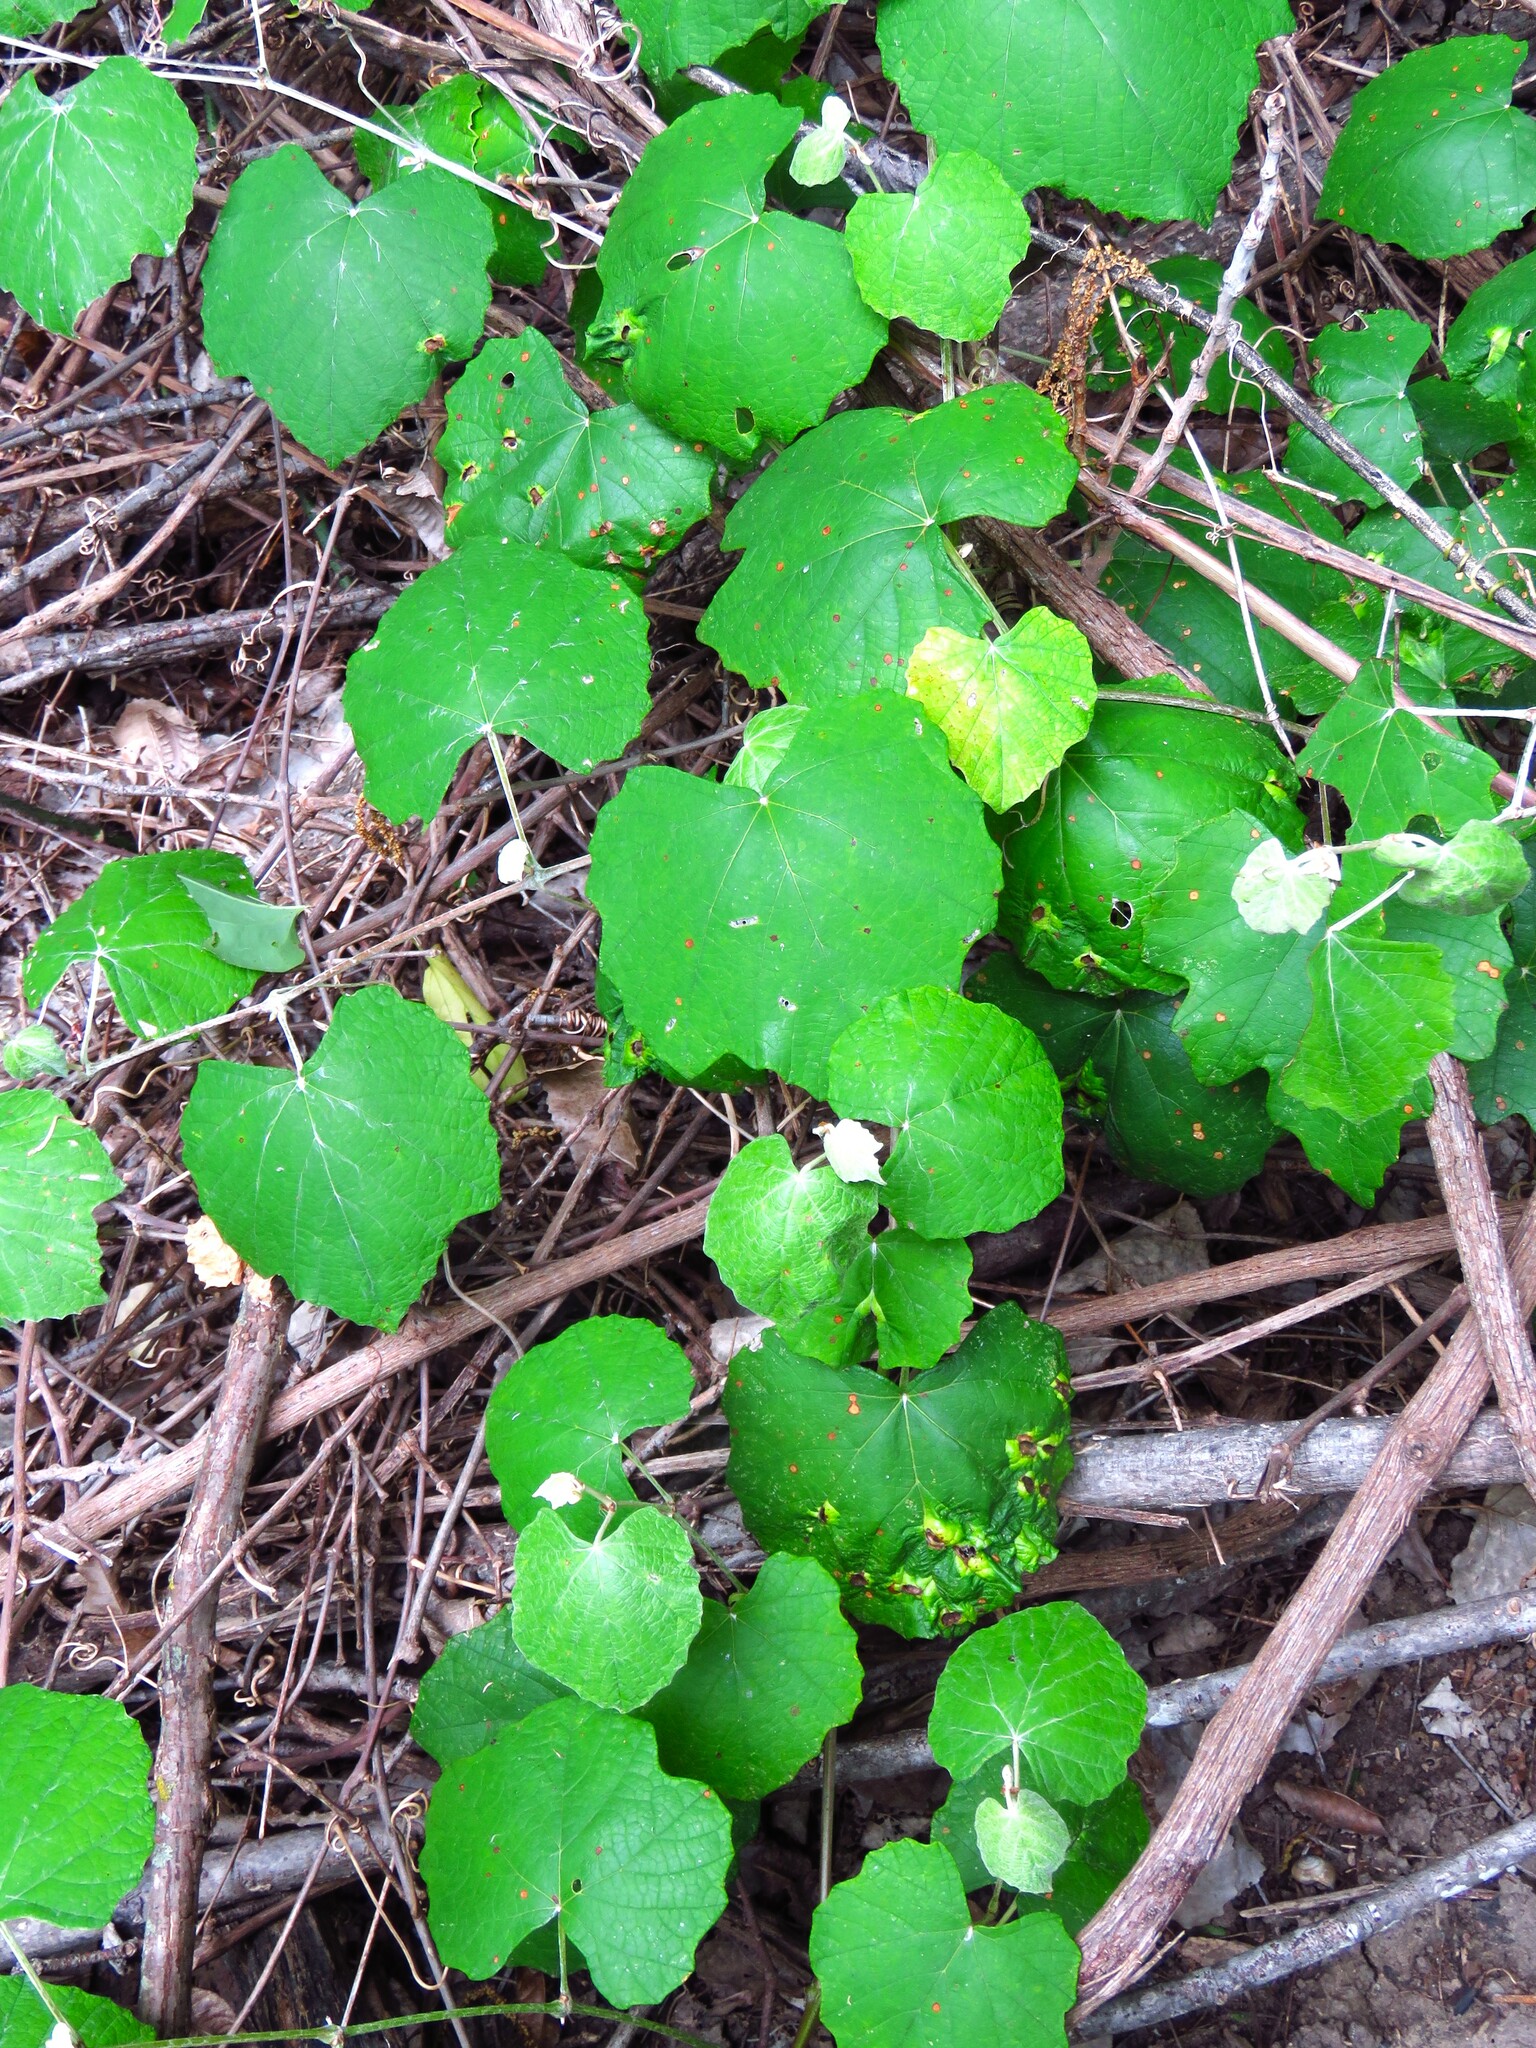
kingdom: Plantae
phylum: Tracheophyta
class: Magnoliopsida
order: Vitales
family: Vitaceae
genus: Vitis
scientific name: Vitis mustangensis
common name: Mustang grape
